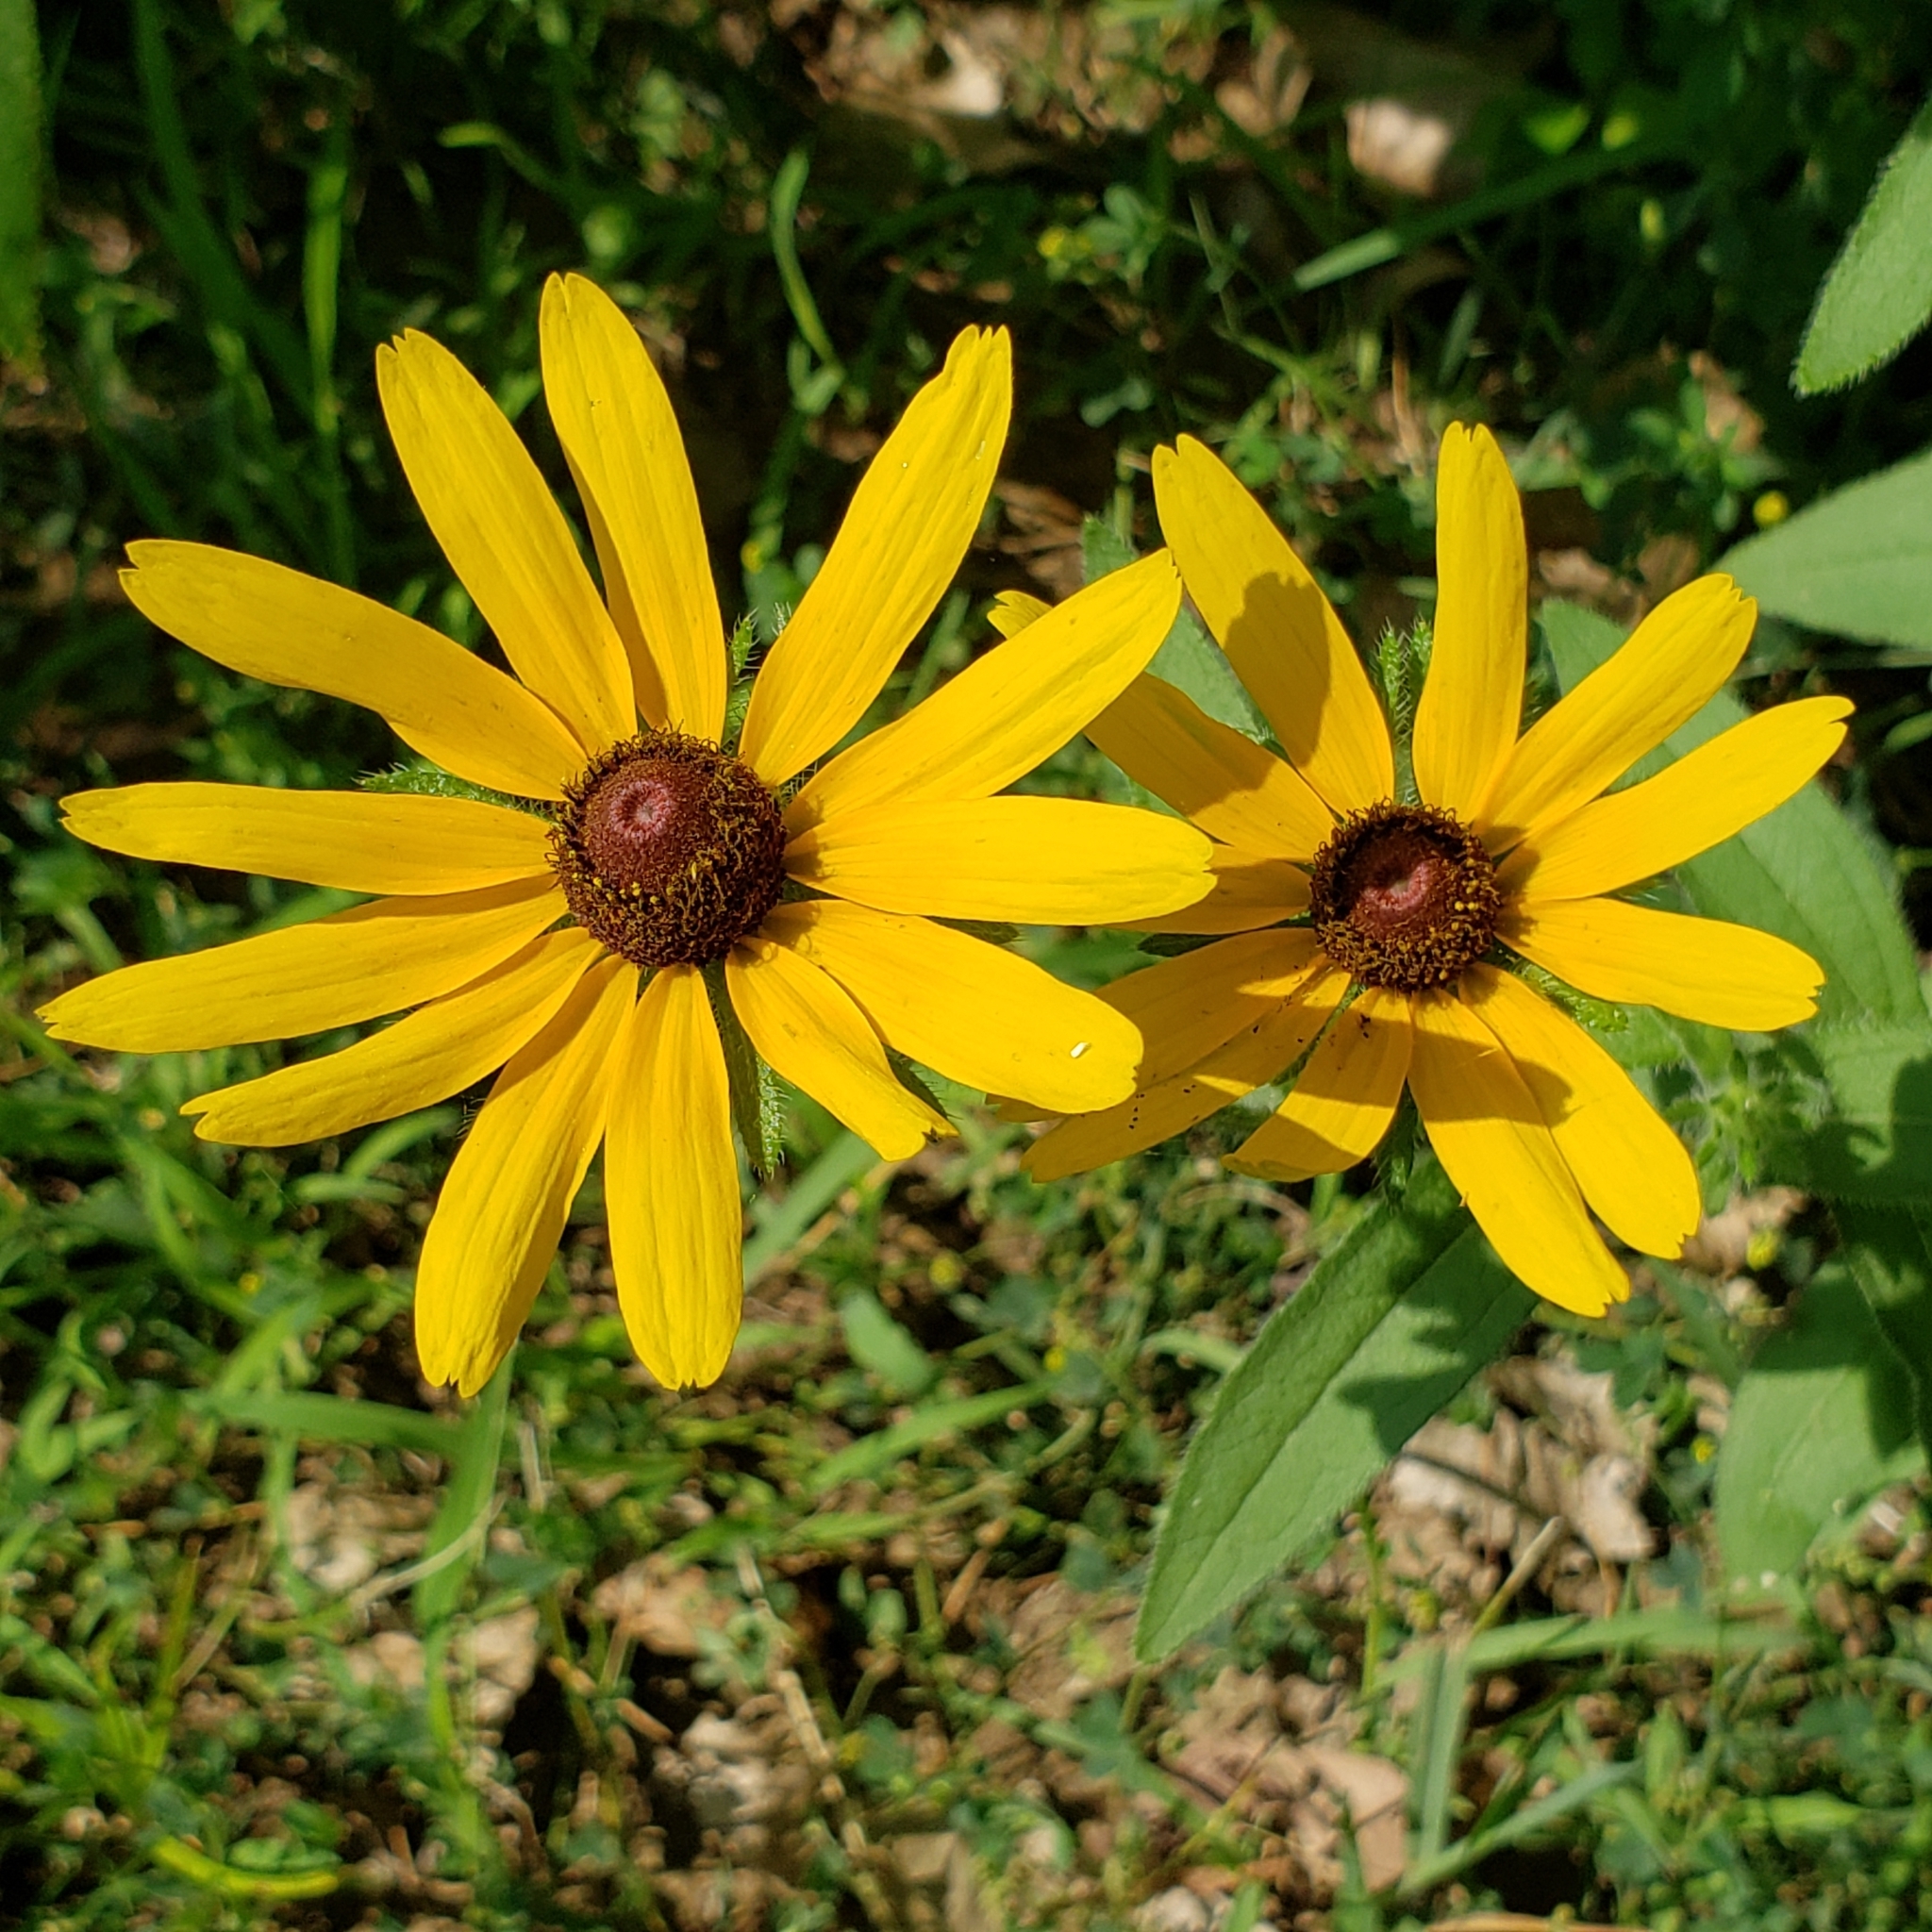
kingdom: Plantae
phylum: Tracheophyta
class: Magnoliopsida
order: Asterales
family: Asteraceae
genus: Rudbeckia
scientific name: Rudbeckia hirta
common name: Black-eyed-susan
